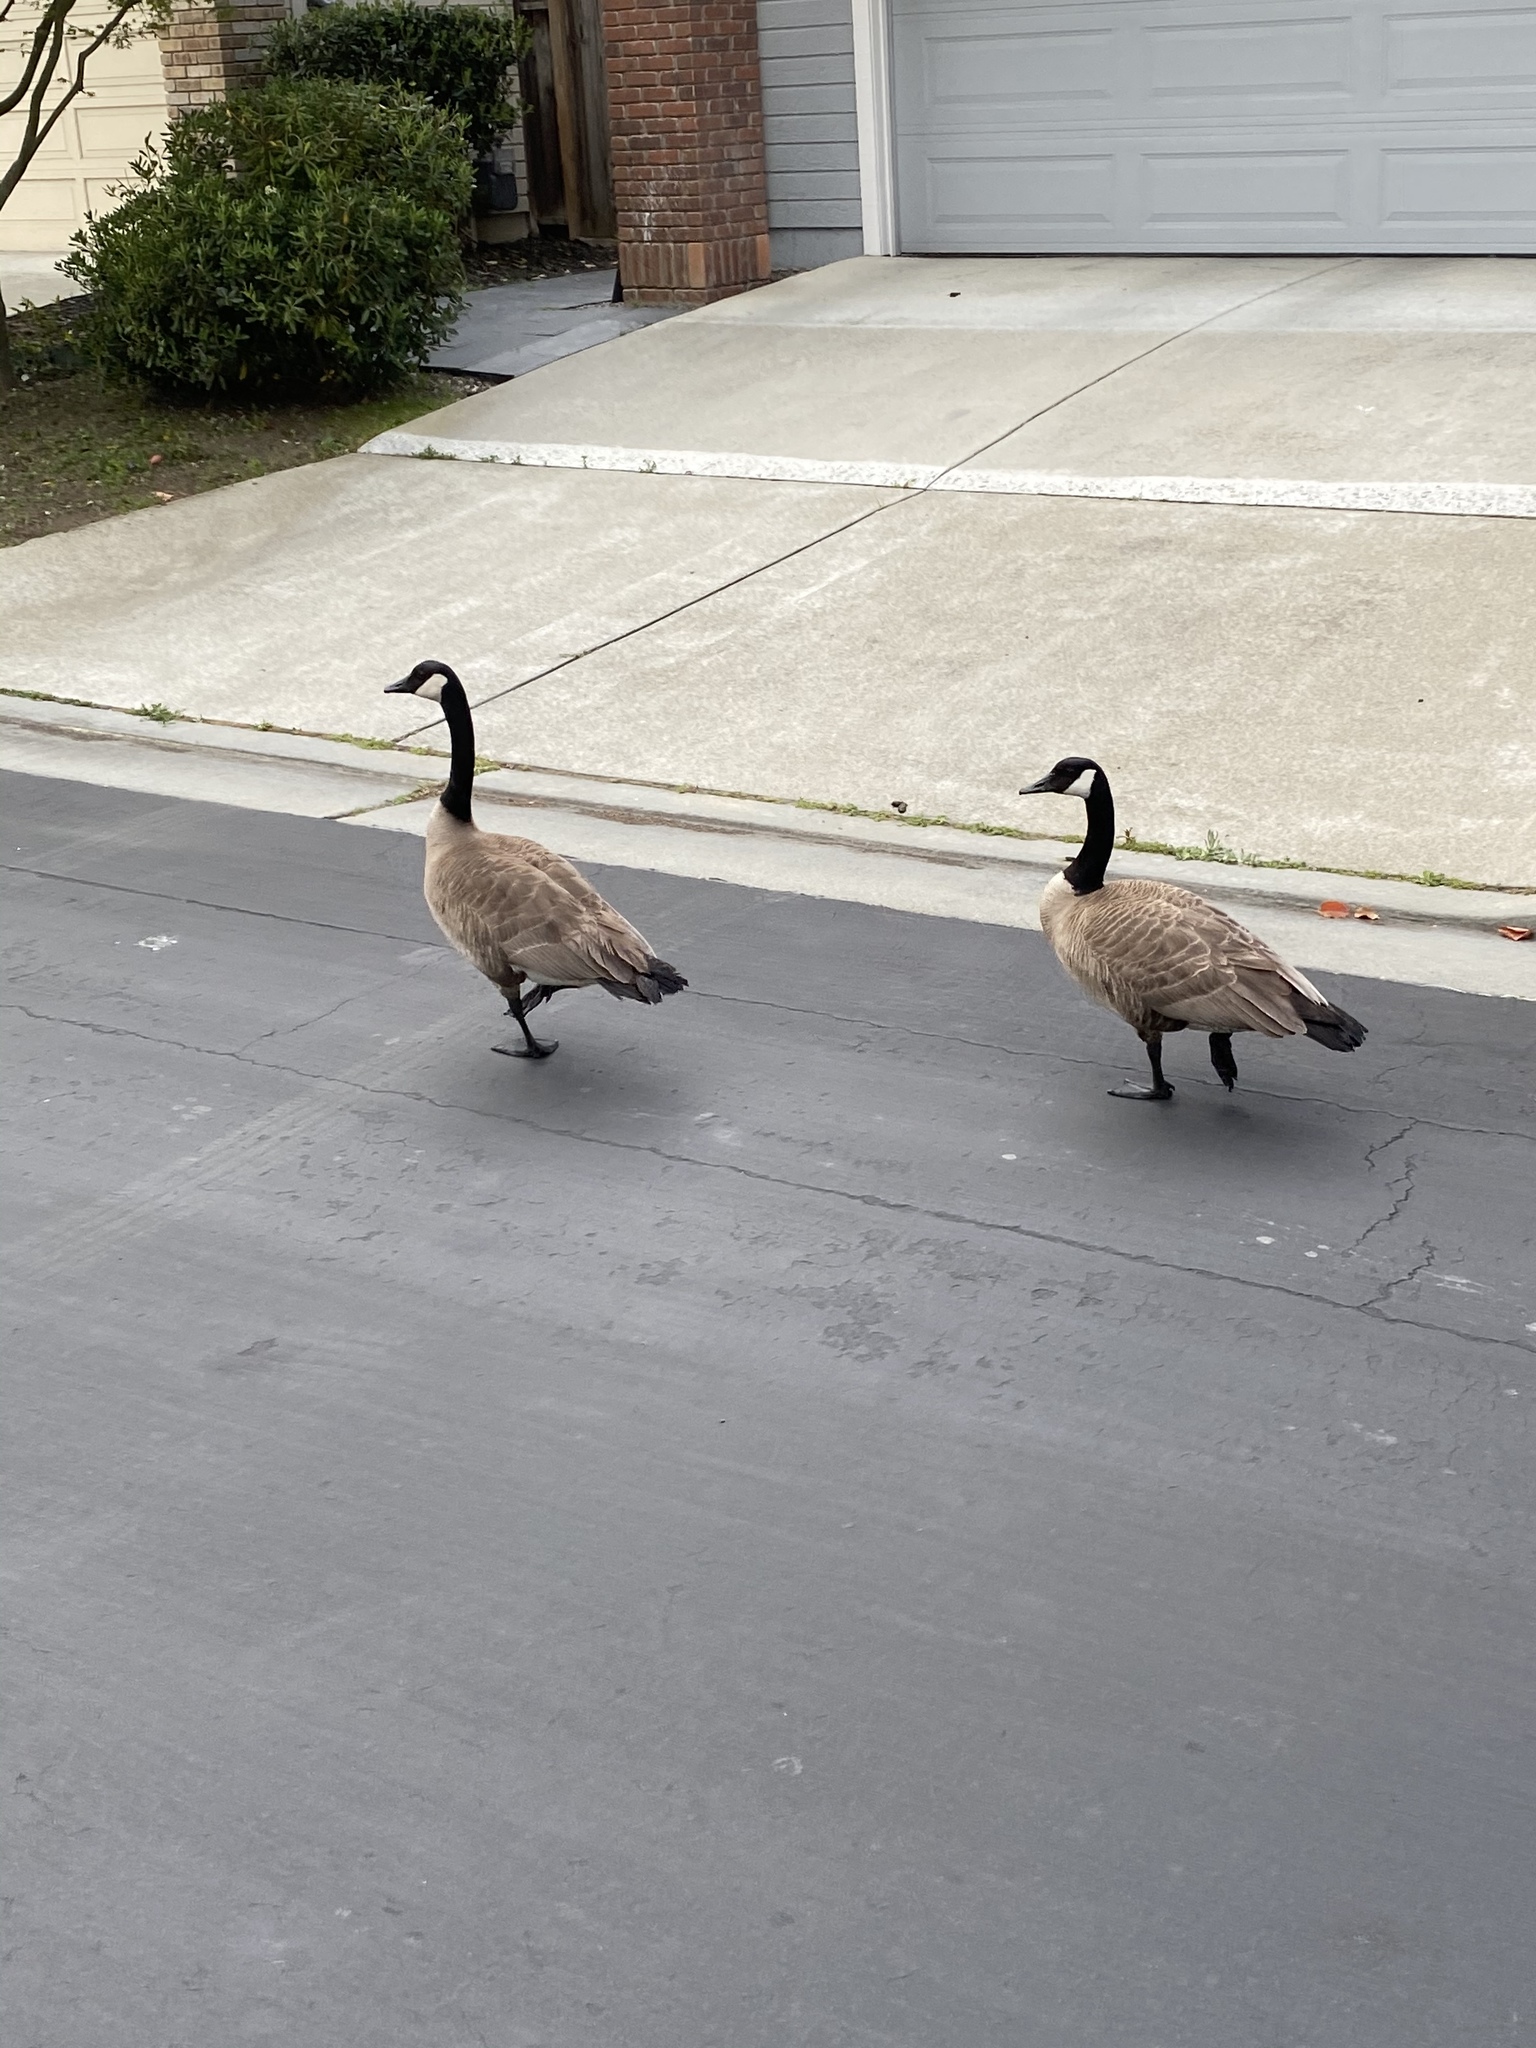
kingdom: Animalia
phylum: Chordata
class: Aves
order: Anseriformes
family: Anatidae
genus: Branta
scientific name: Branta canadensis
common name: Canada goose
